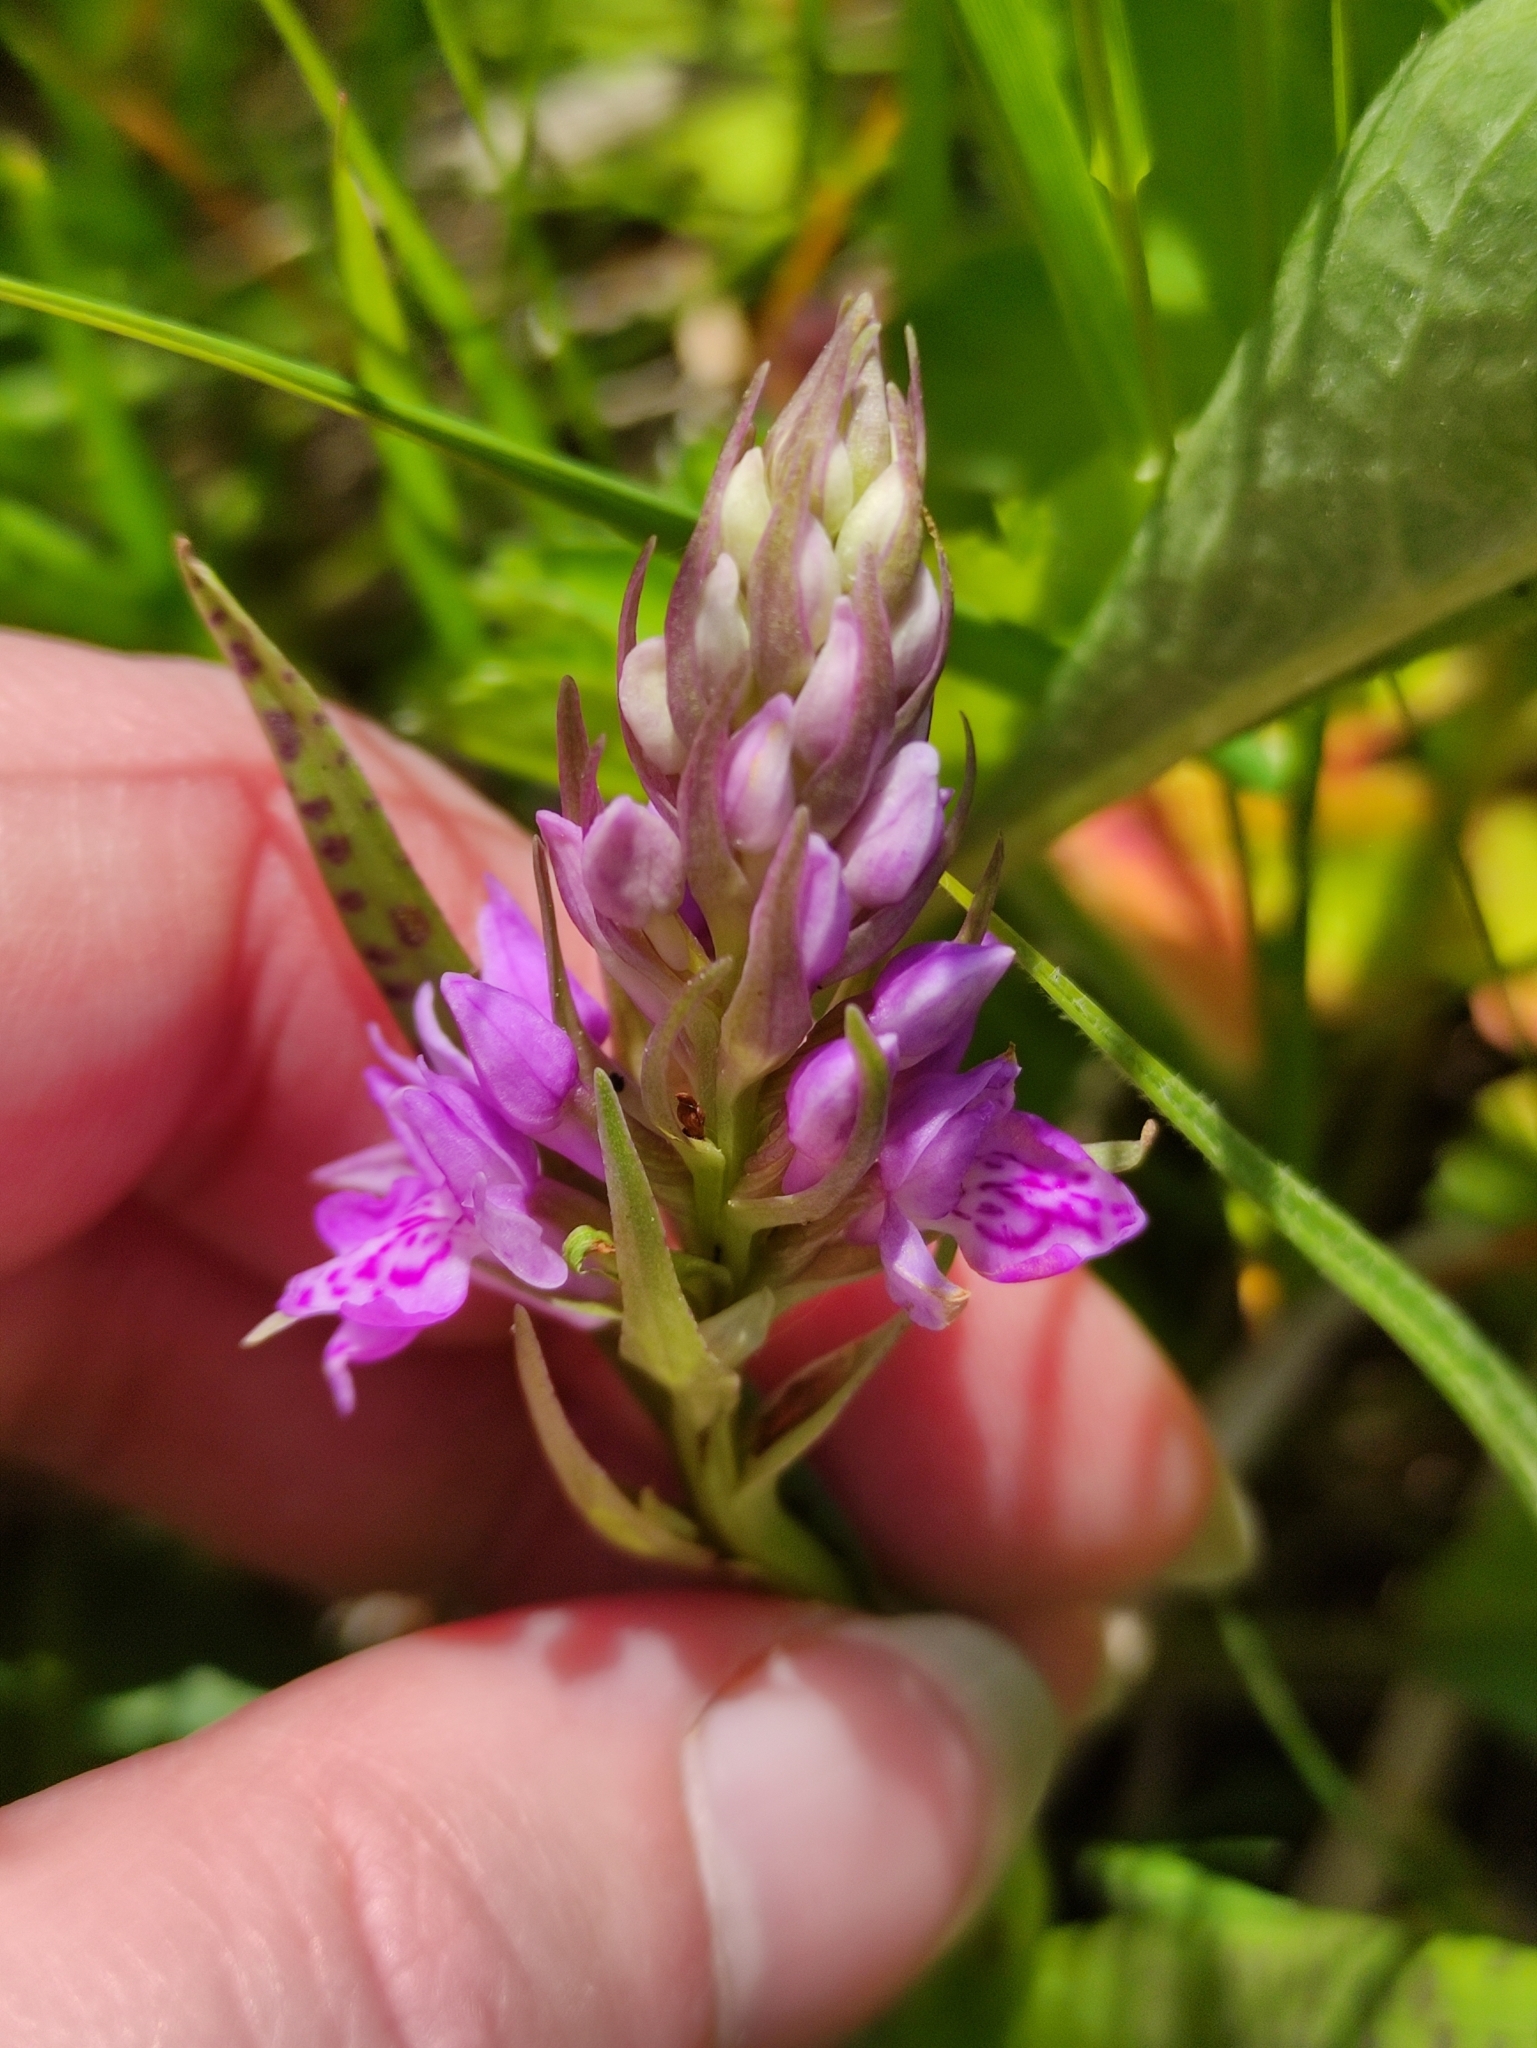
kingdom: Plantae
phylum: Tracheophyta
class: Liliopsida
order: Asparagales
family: Orchidaceae
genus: Dactylorhiza
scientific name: Dactylorhiza incarnata
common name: Early marsh-orchid
